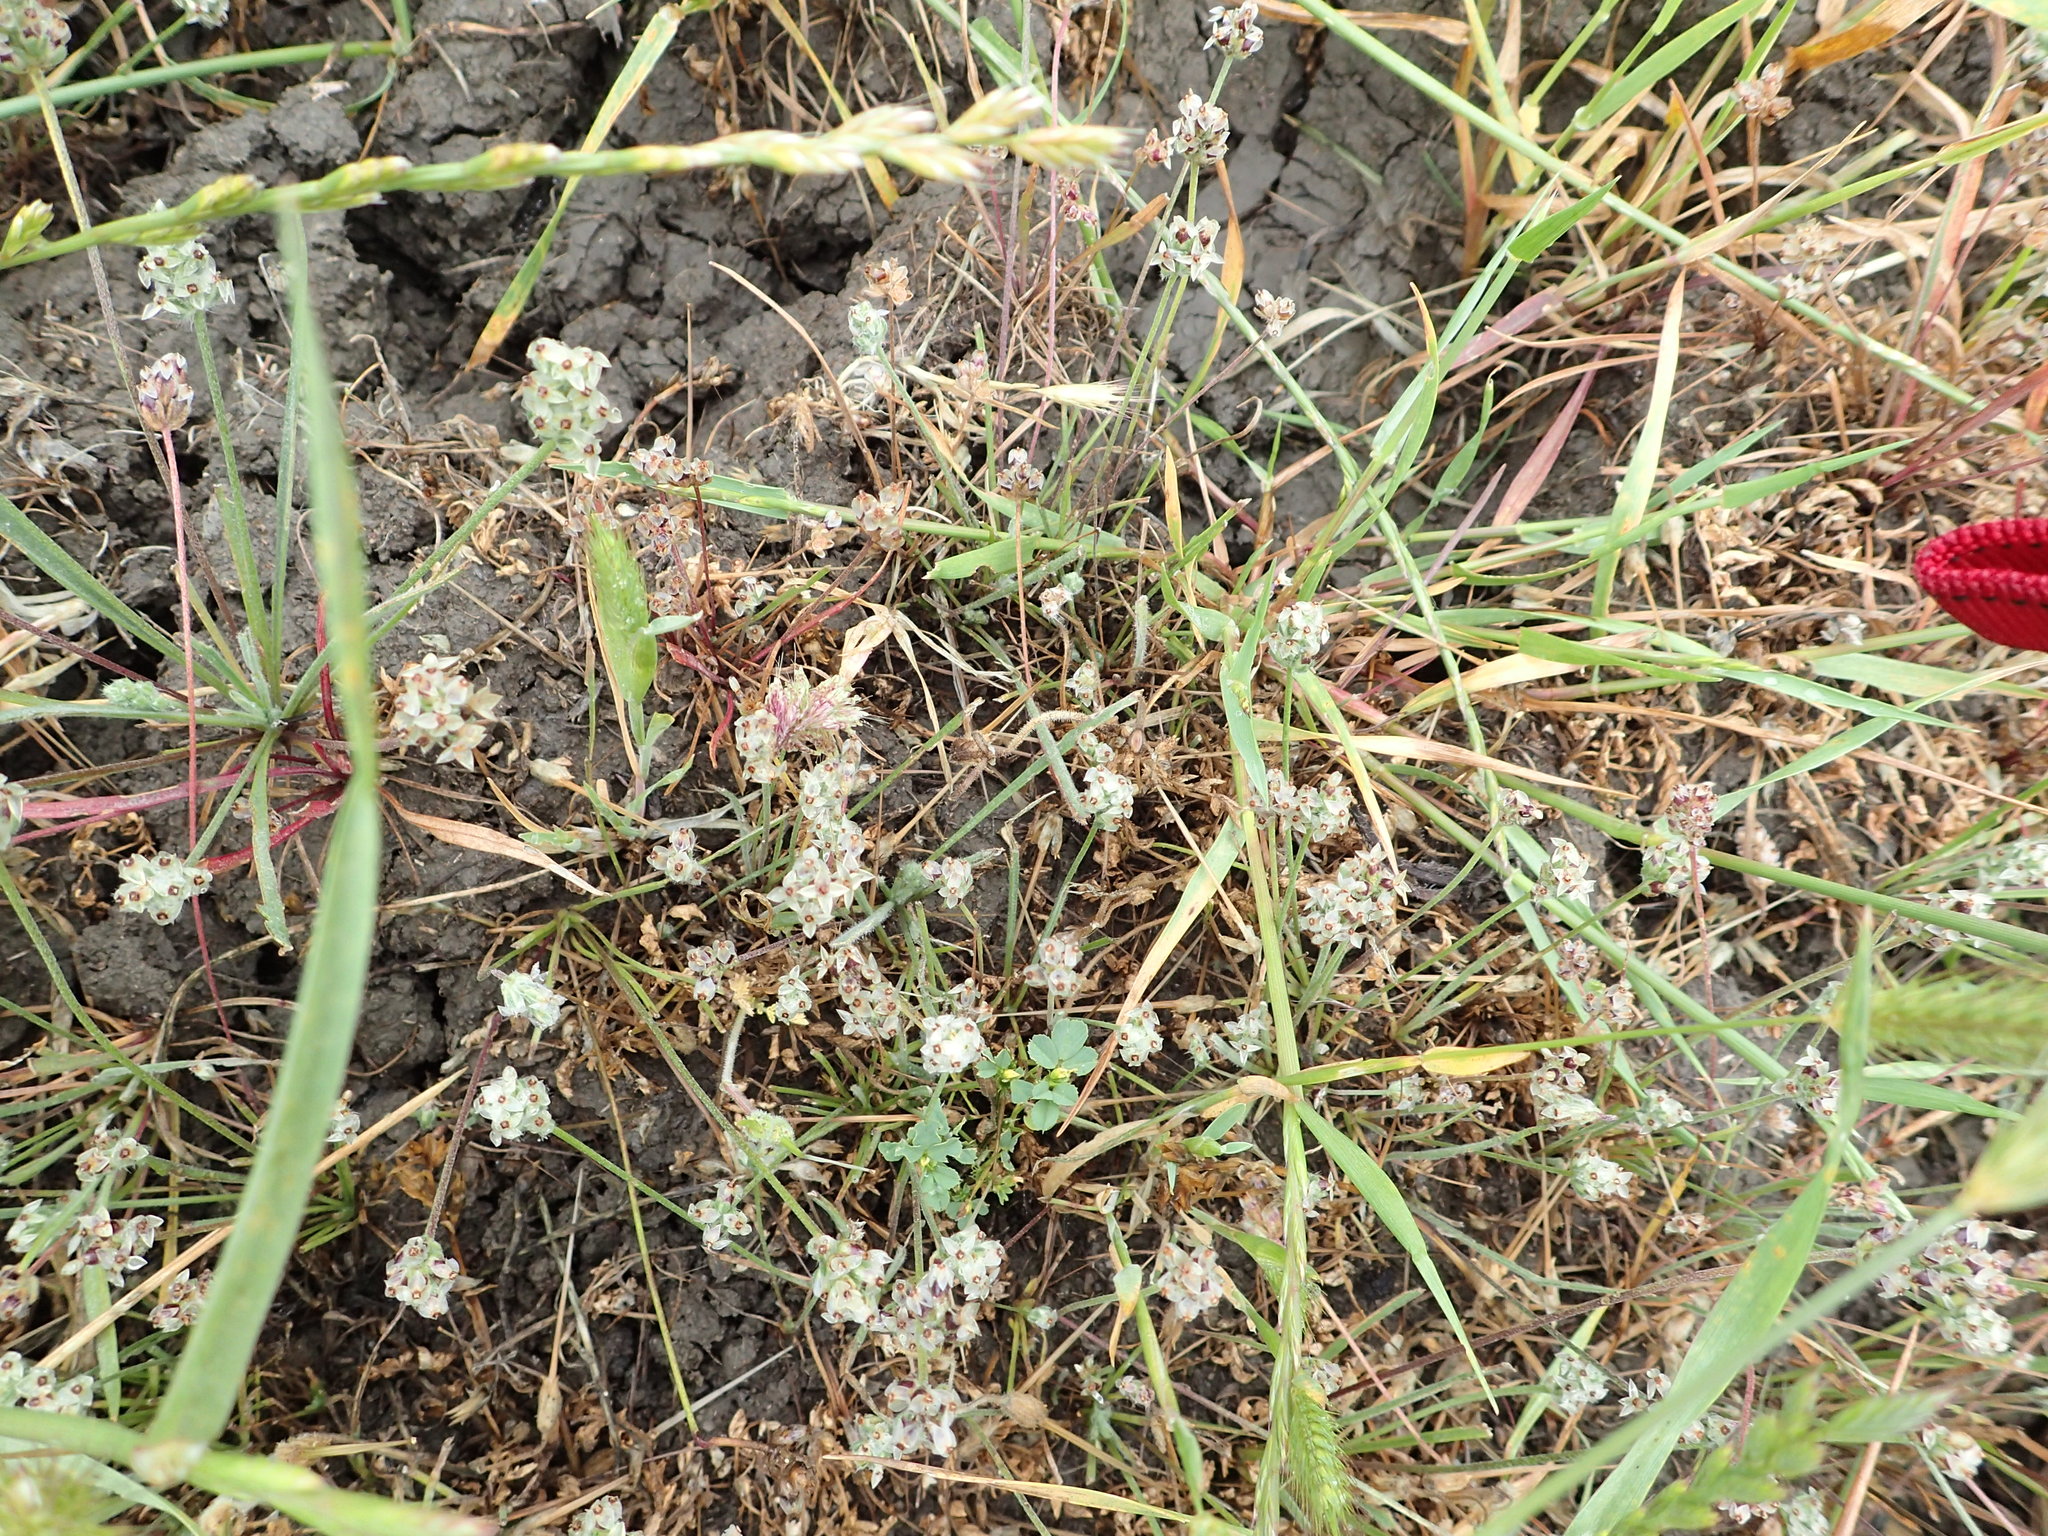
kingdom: Plantae
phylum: Tracheophyta
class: Magnoliopsida
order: Lamiales
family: Plantaginaceae
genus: Plantago
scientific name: Plantago erecta
